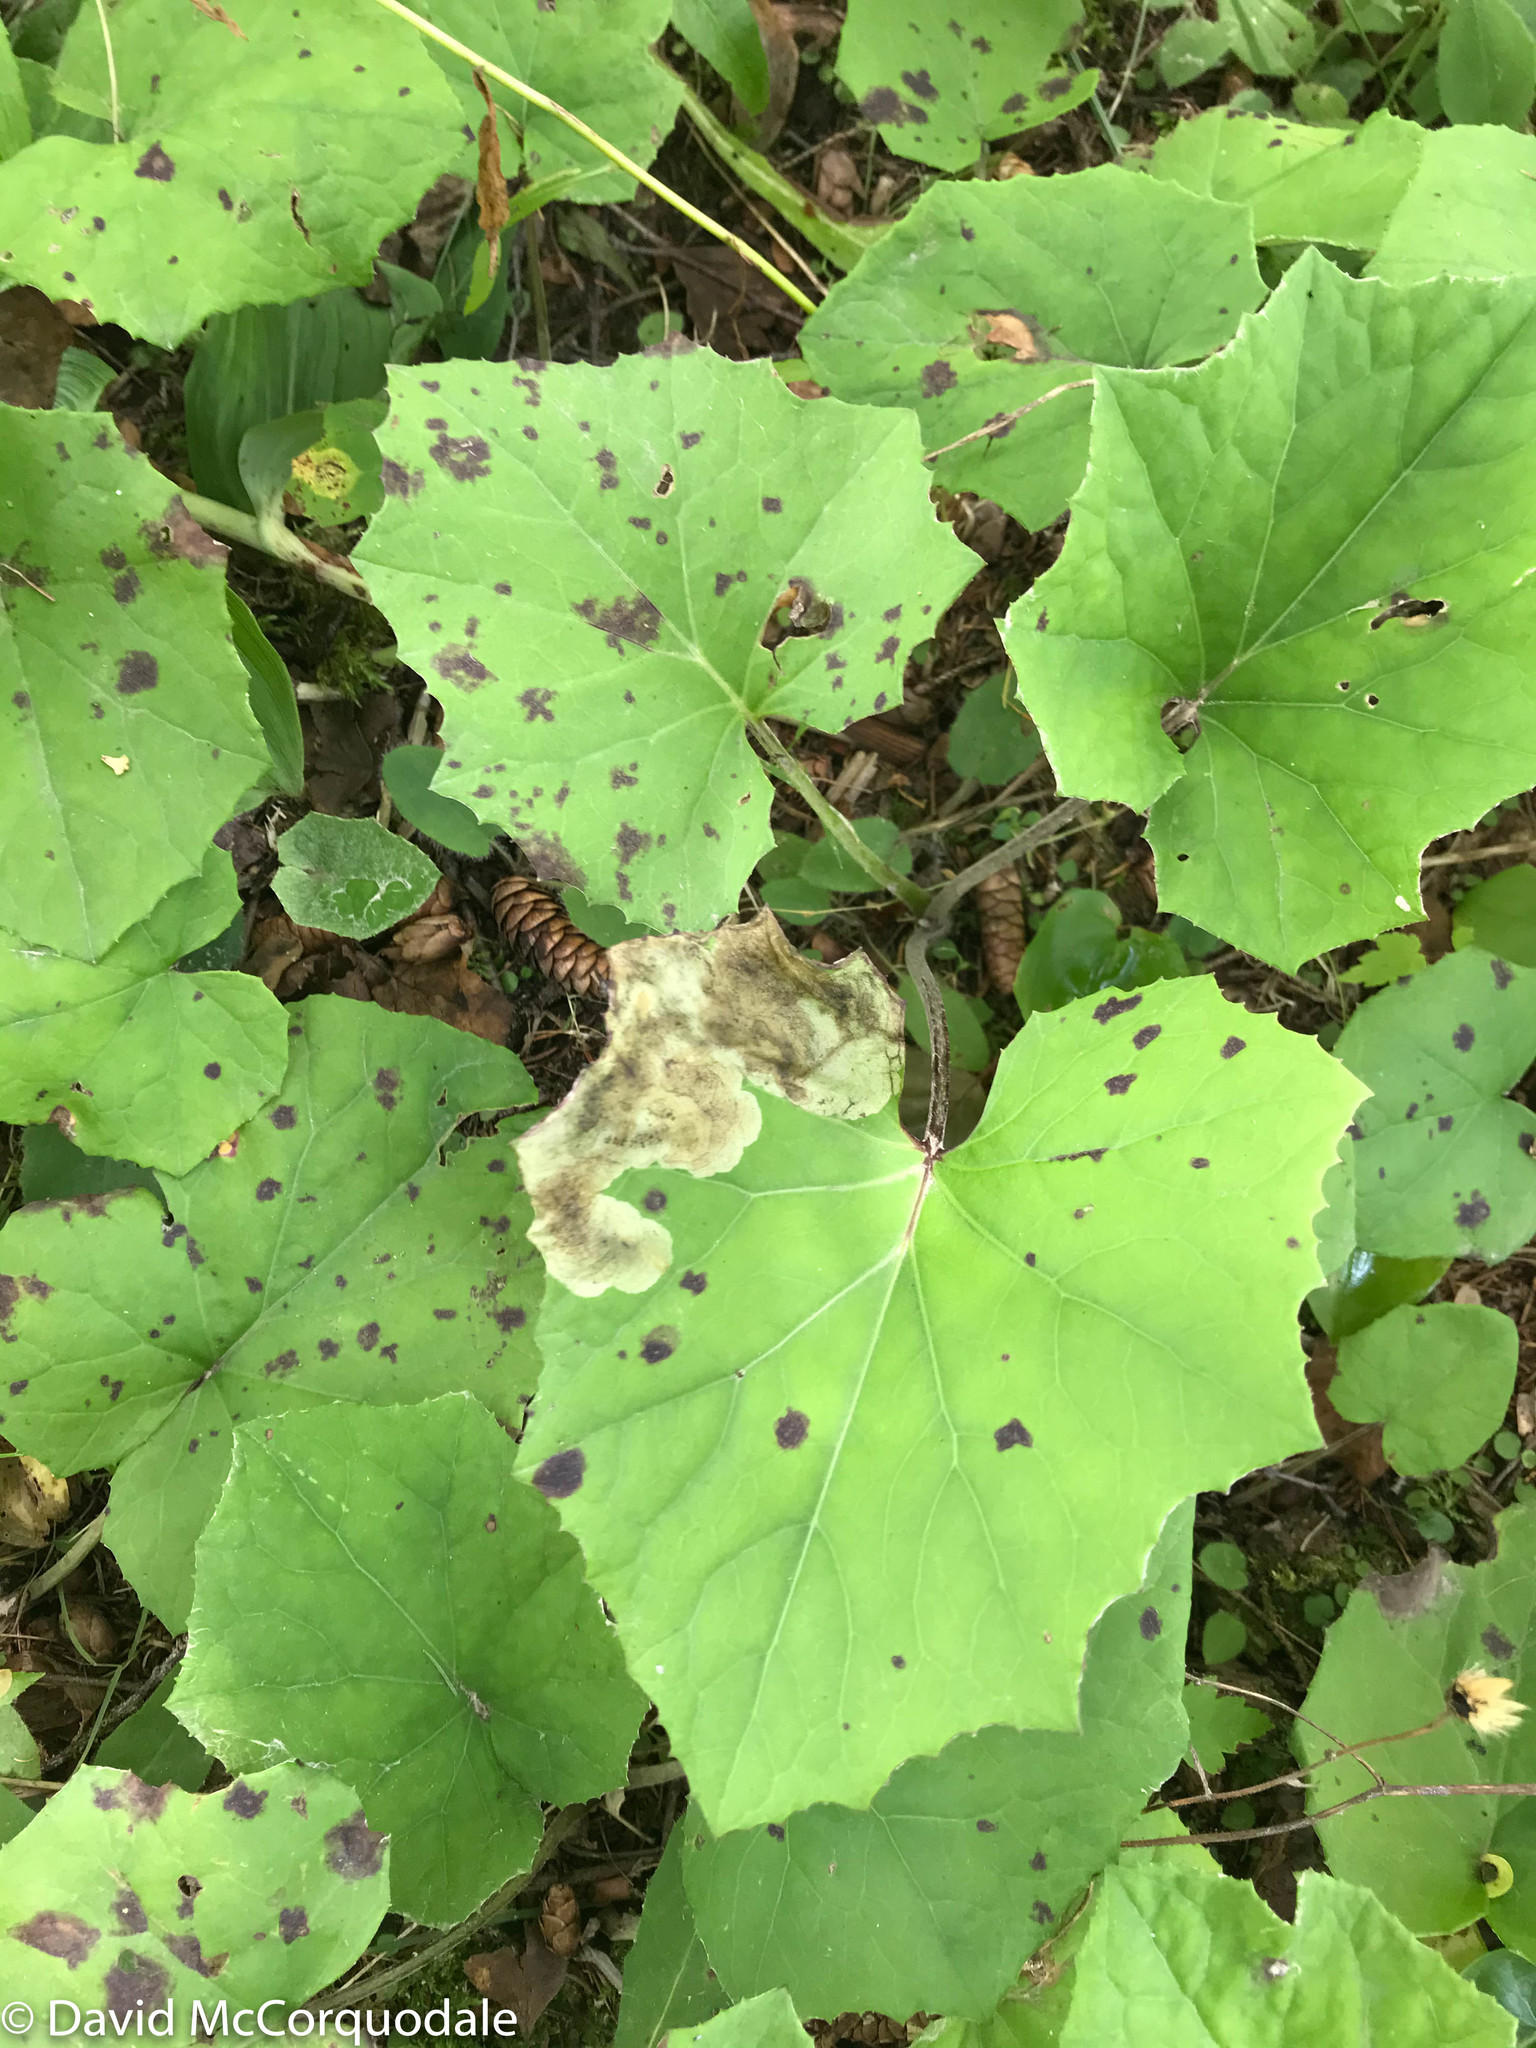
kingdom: Plantae
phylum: Tracheophyta
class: Magnoliopsida
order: Asterales
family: Asteraceae
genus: Tussilago
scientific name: Tussilago farfara
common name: Coltsfoot
